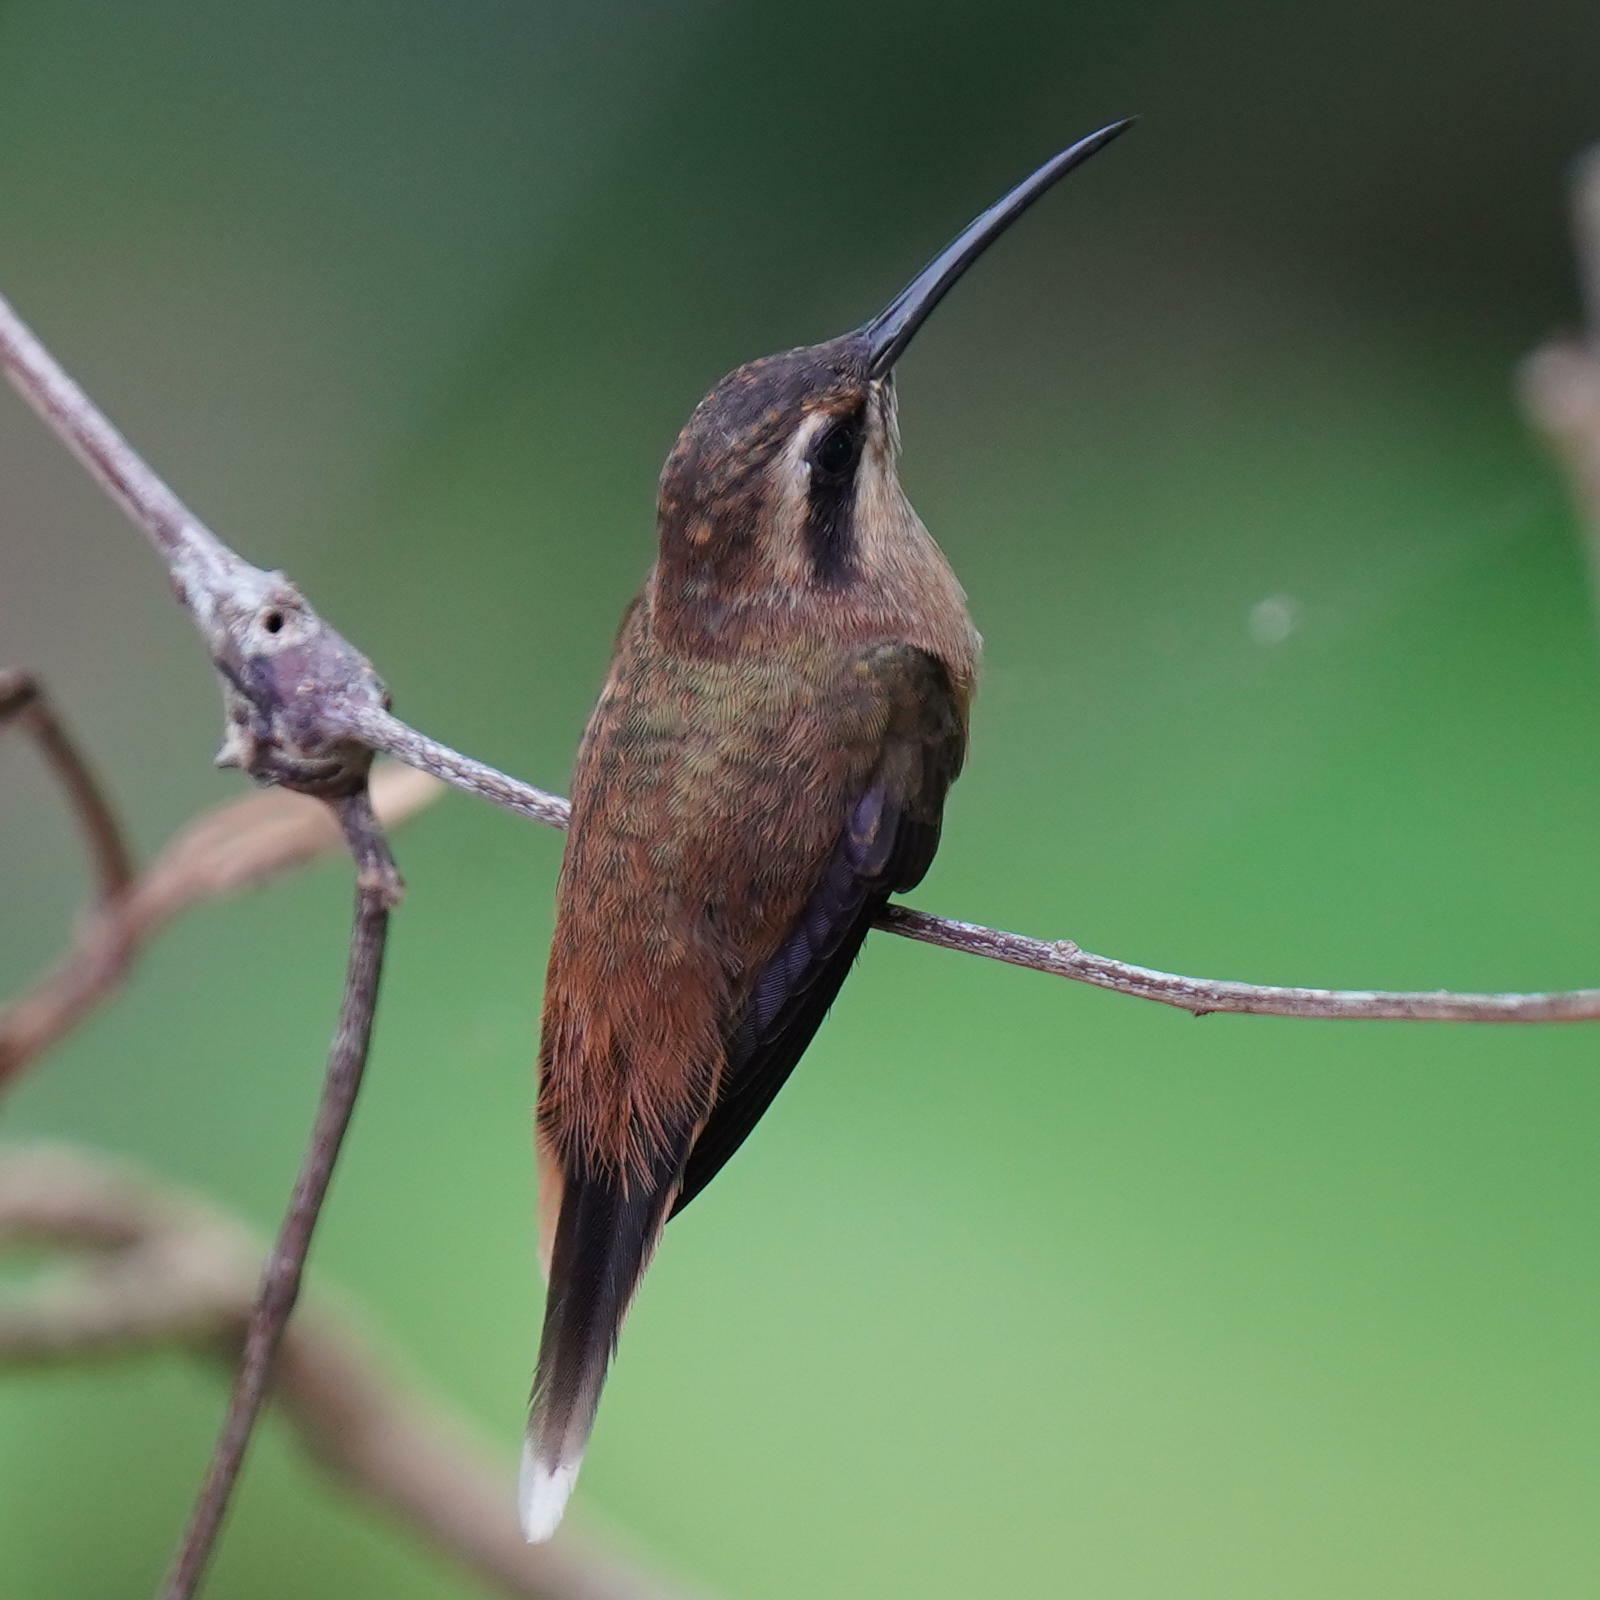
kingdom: Animalia
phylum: Chordata
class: Aves
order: Apodiformes
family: Trochilidae
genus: Phaethornis
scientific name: Phaethornis striigularis
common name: Stripe-throated hermit
